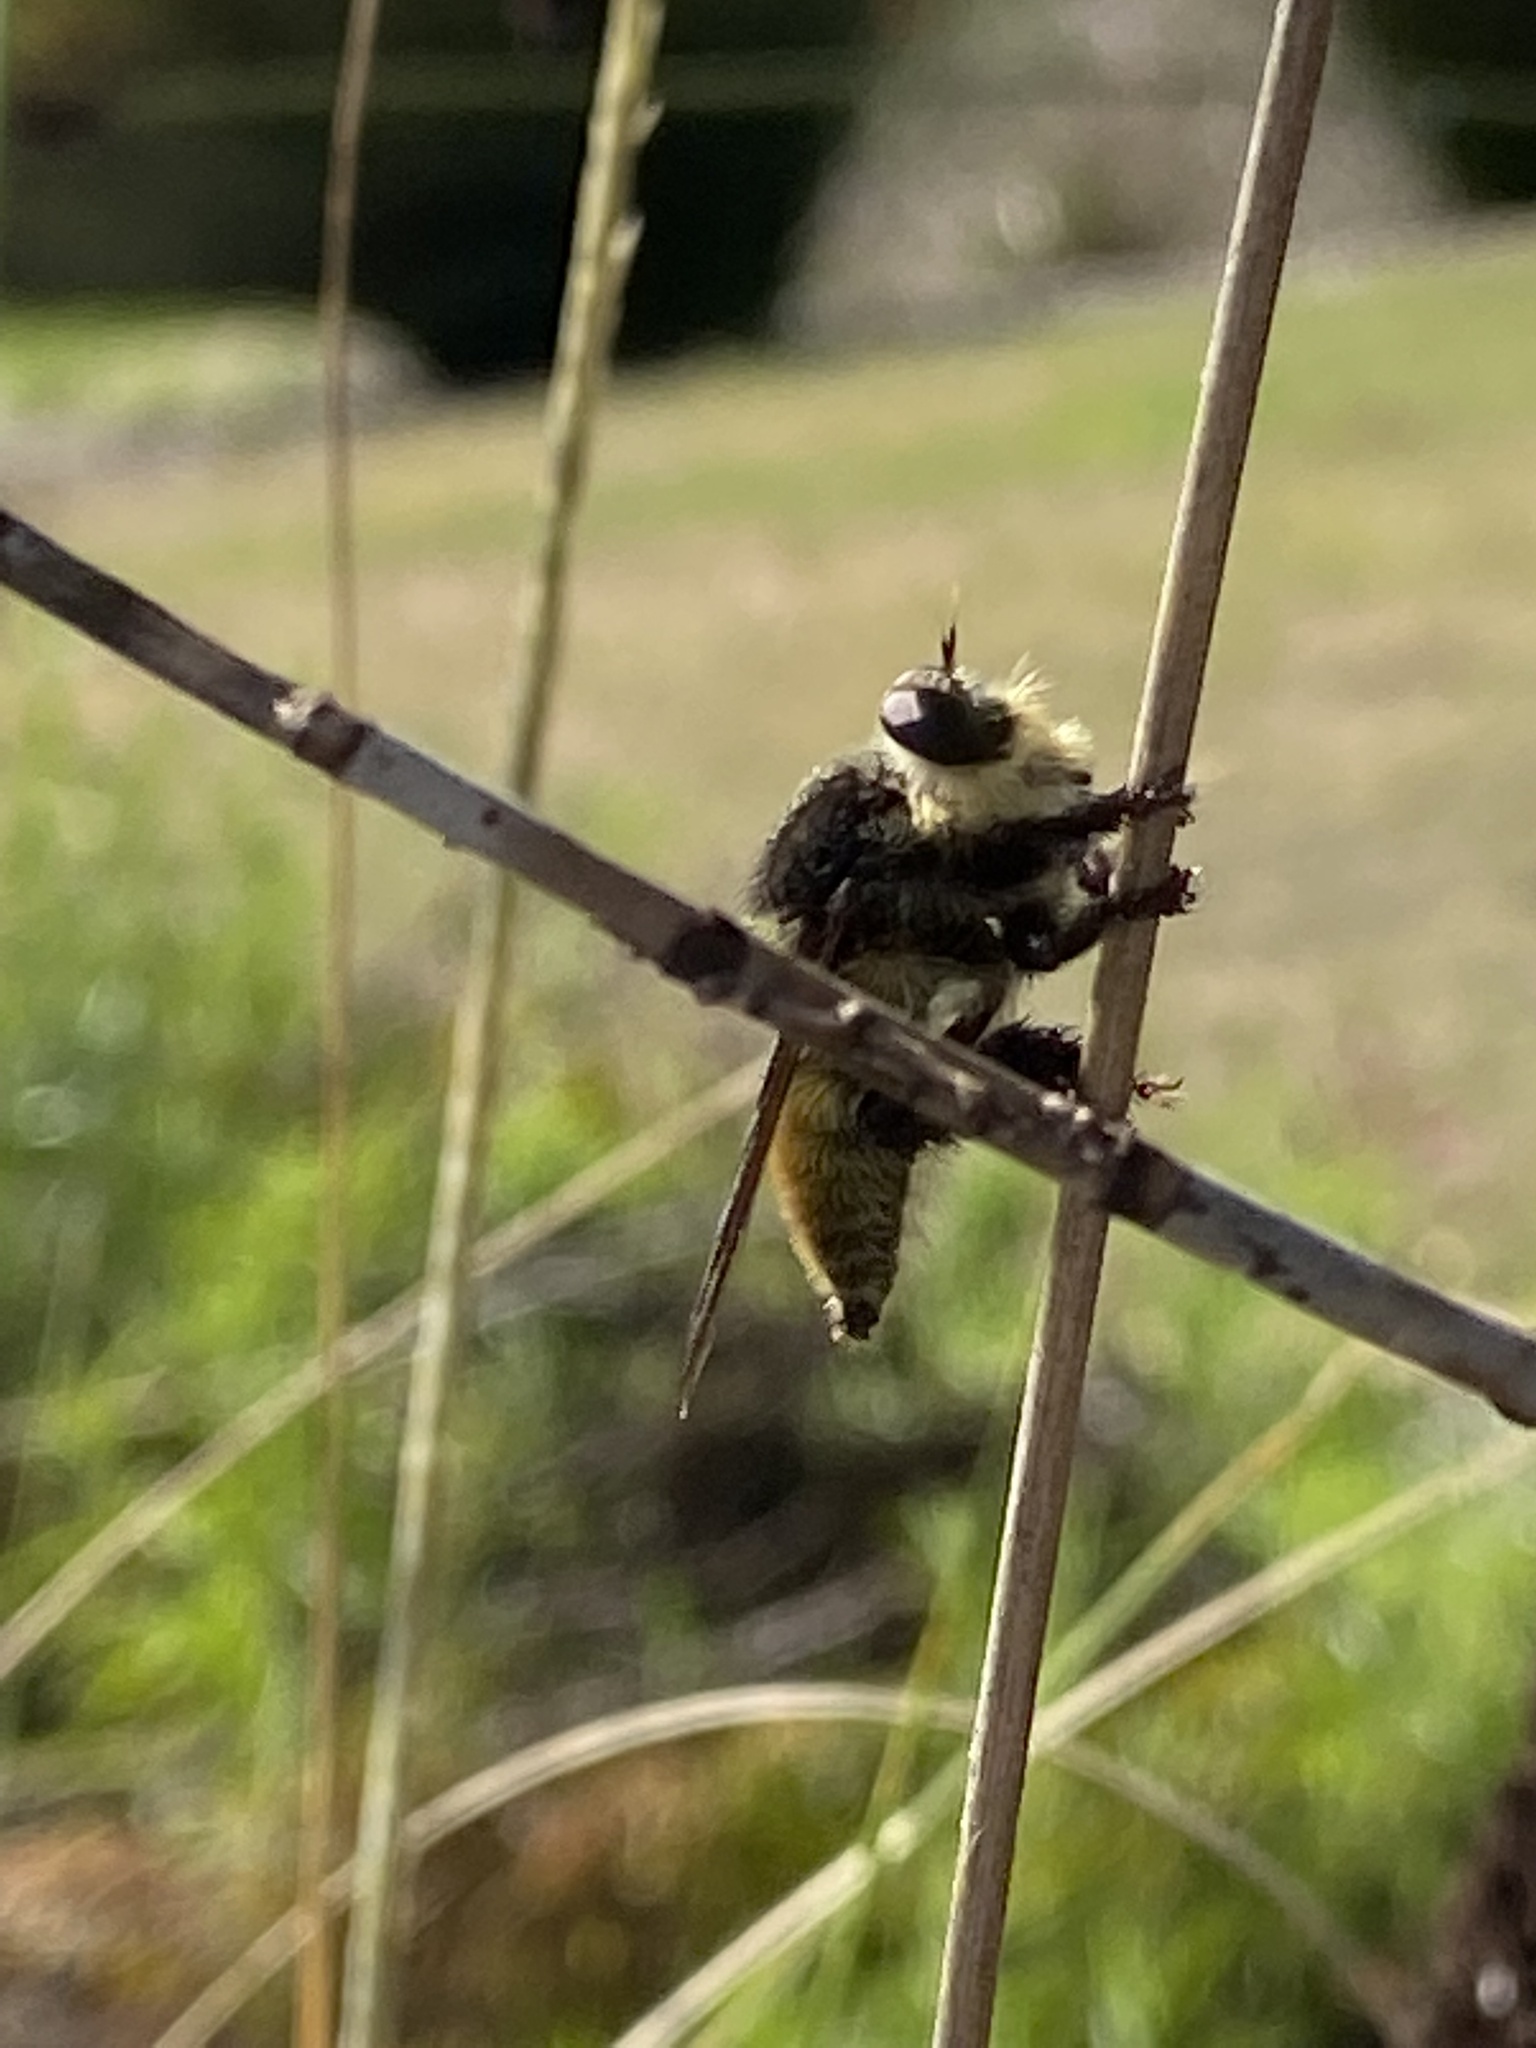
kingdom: Animalia
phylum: Arthropoda
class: Insecta
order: Diptera
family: Asilidae
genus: Mallophora
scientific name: Mallophora fautrix
